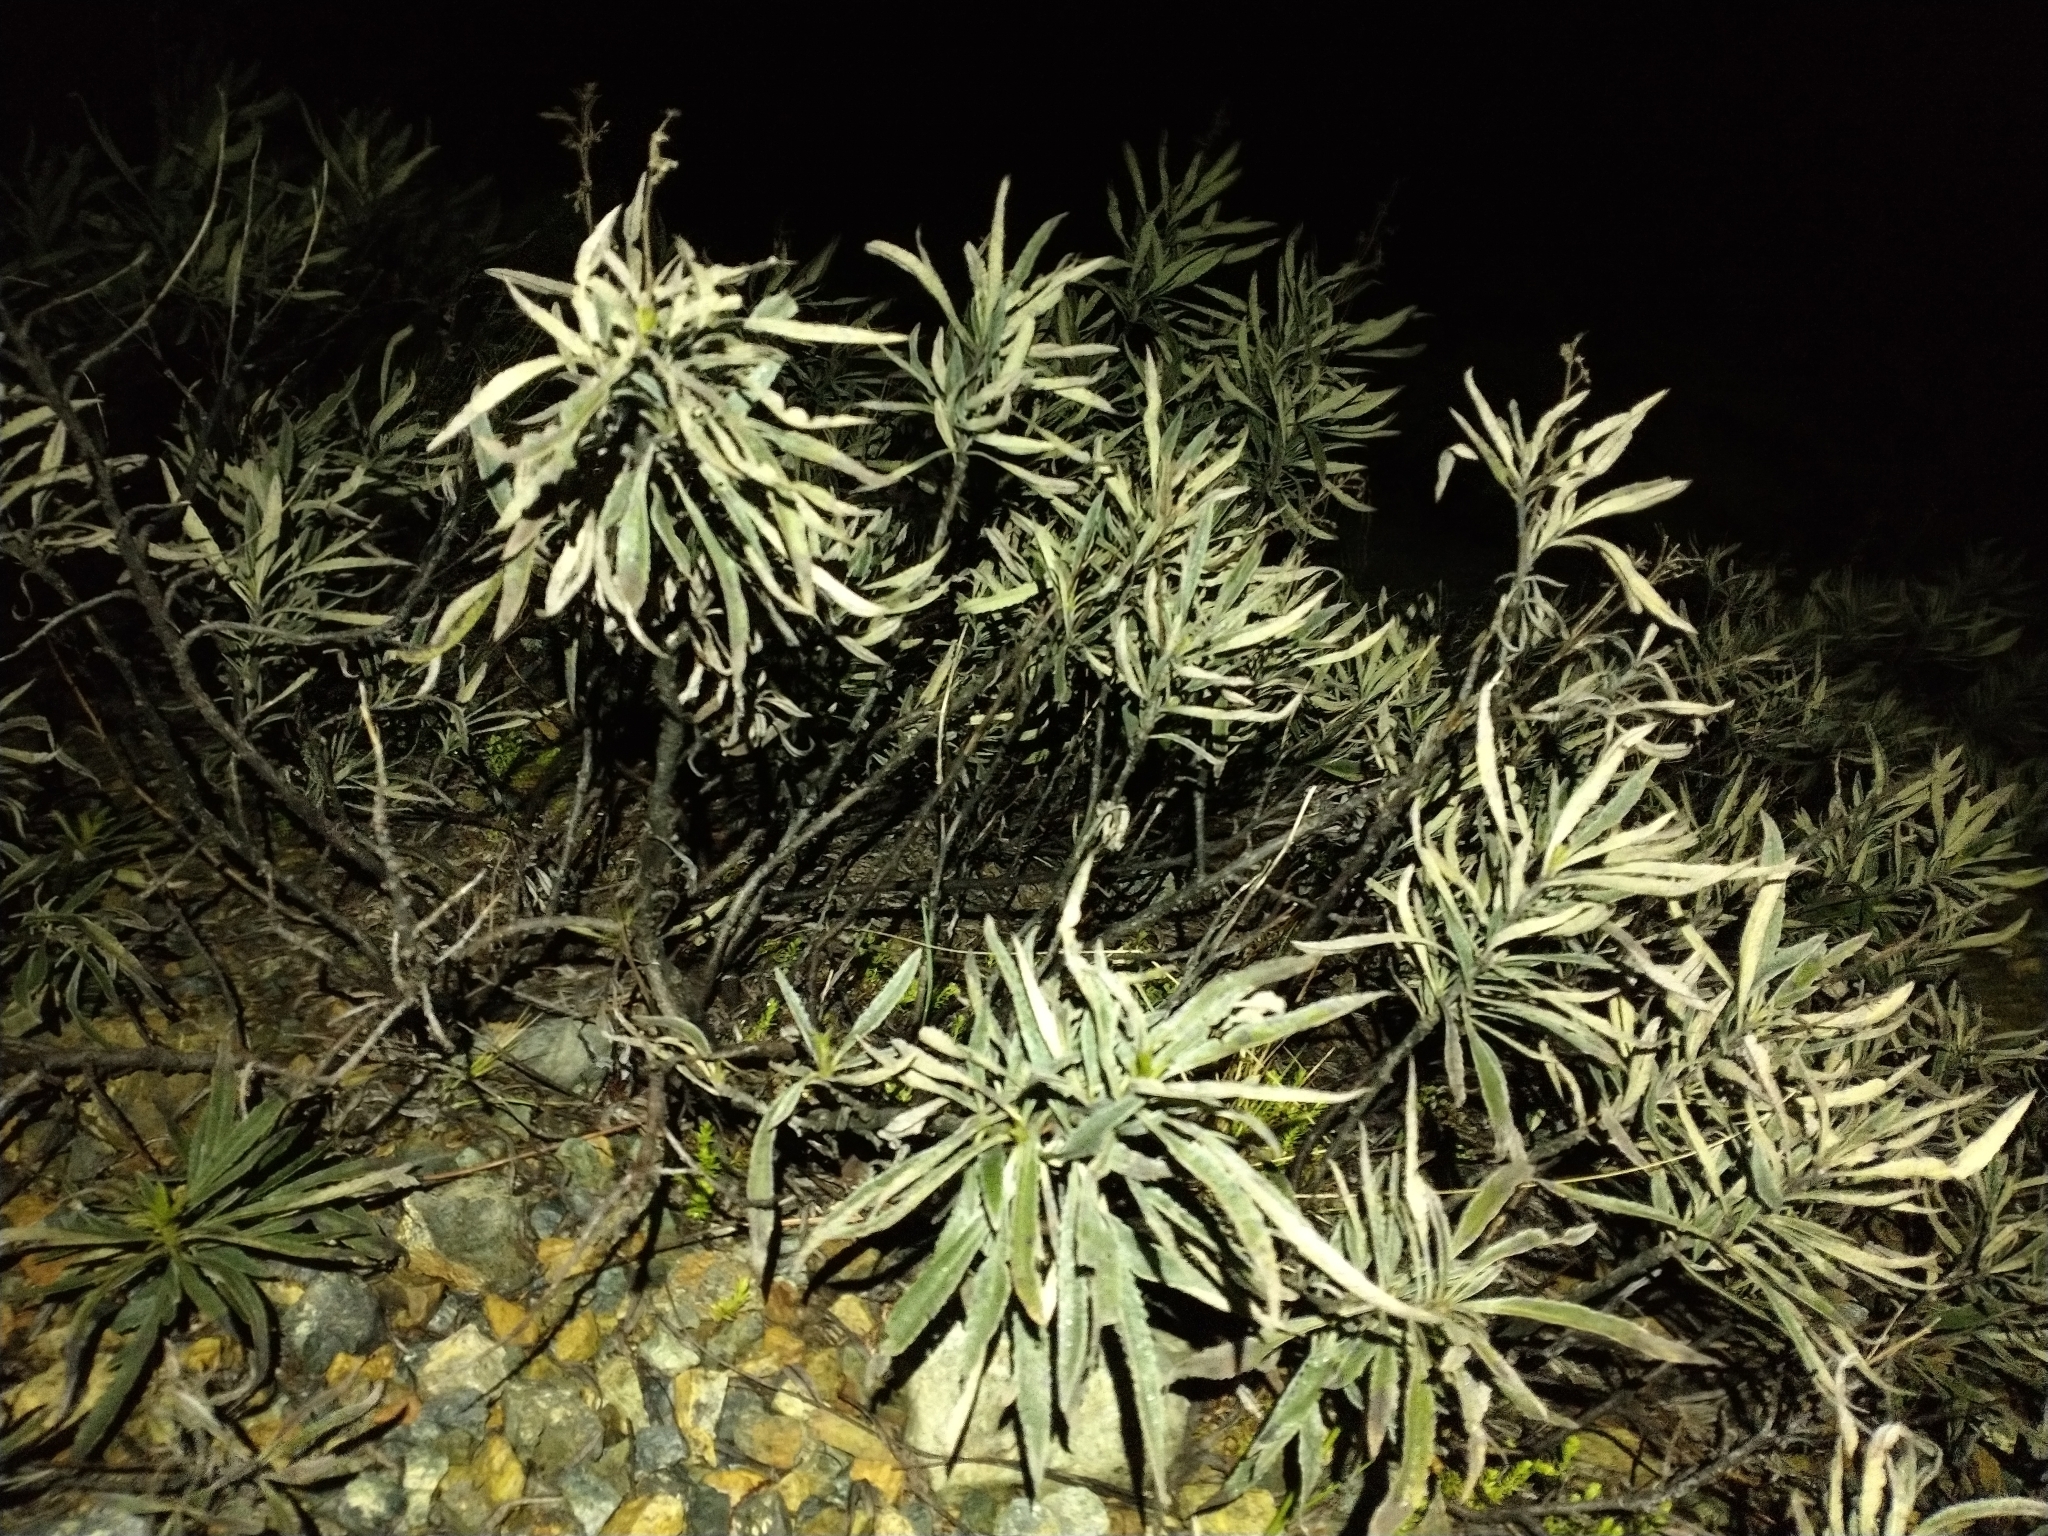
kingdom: Plantae
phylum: Tracheophyta
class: Magnoliopsida
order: Boraginales
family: Namaceae
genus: Eriodictyon
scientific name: Eriodictyon californicum
